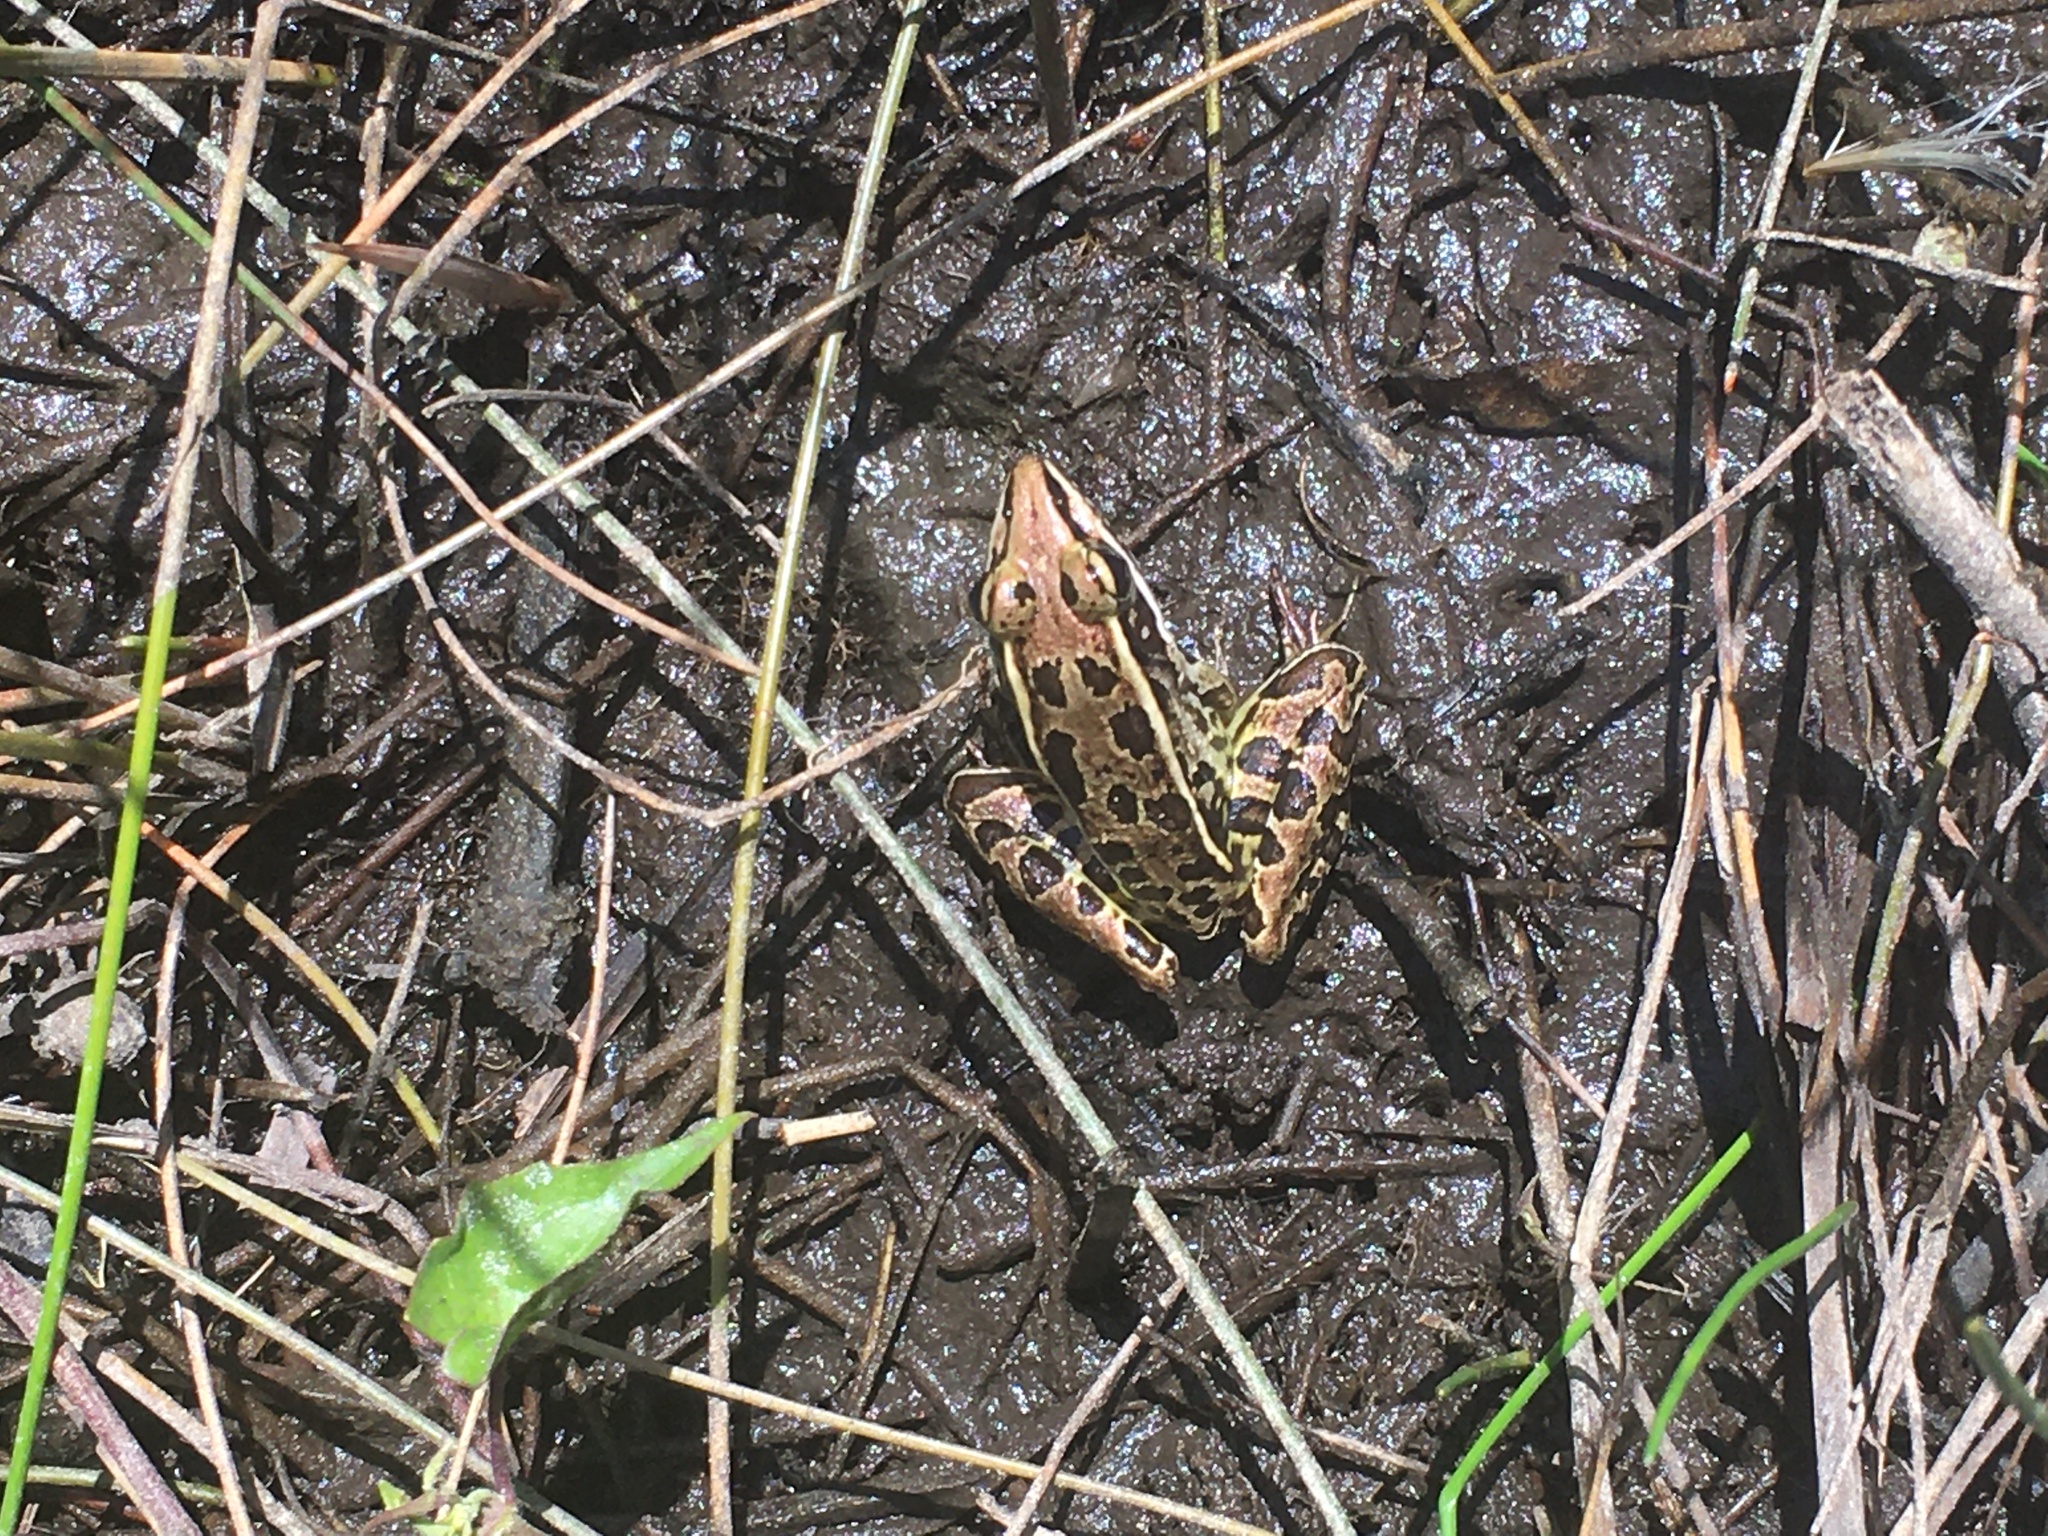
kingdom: Animalia
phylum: Chordata
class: Amphibia
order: Anura
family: Ranidae
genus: Lithobates
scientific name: Lithobates sphenocephalus
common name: Southern leopard frog
